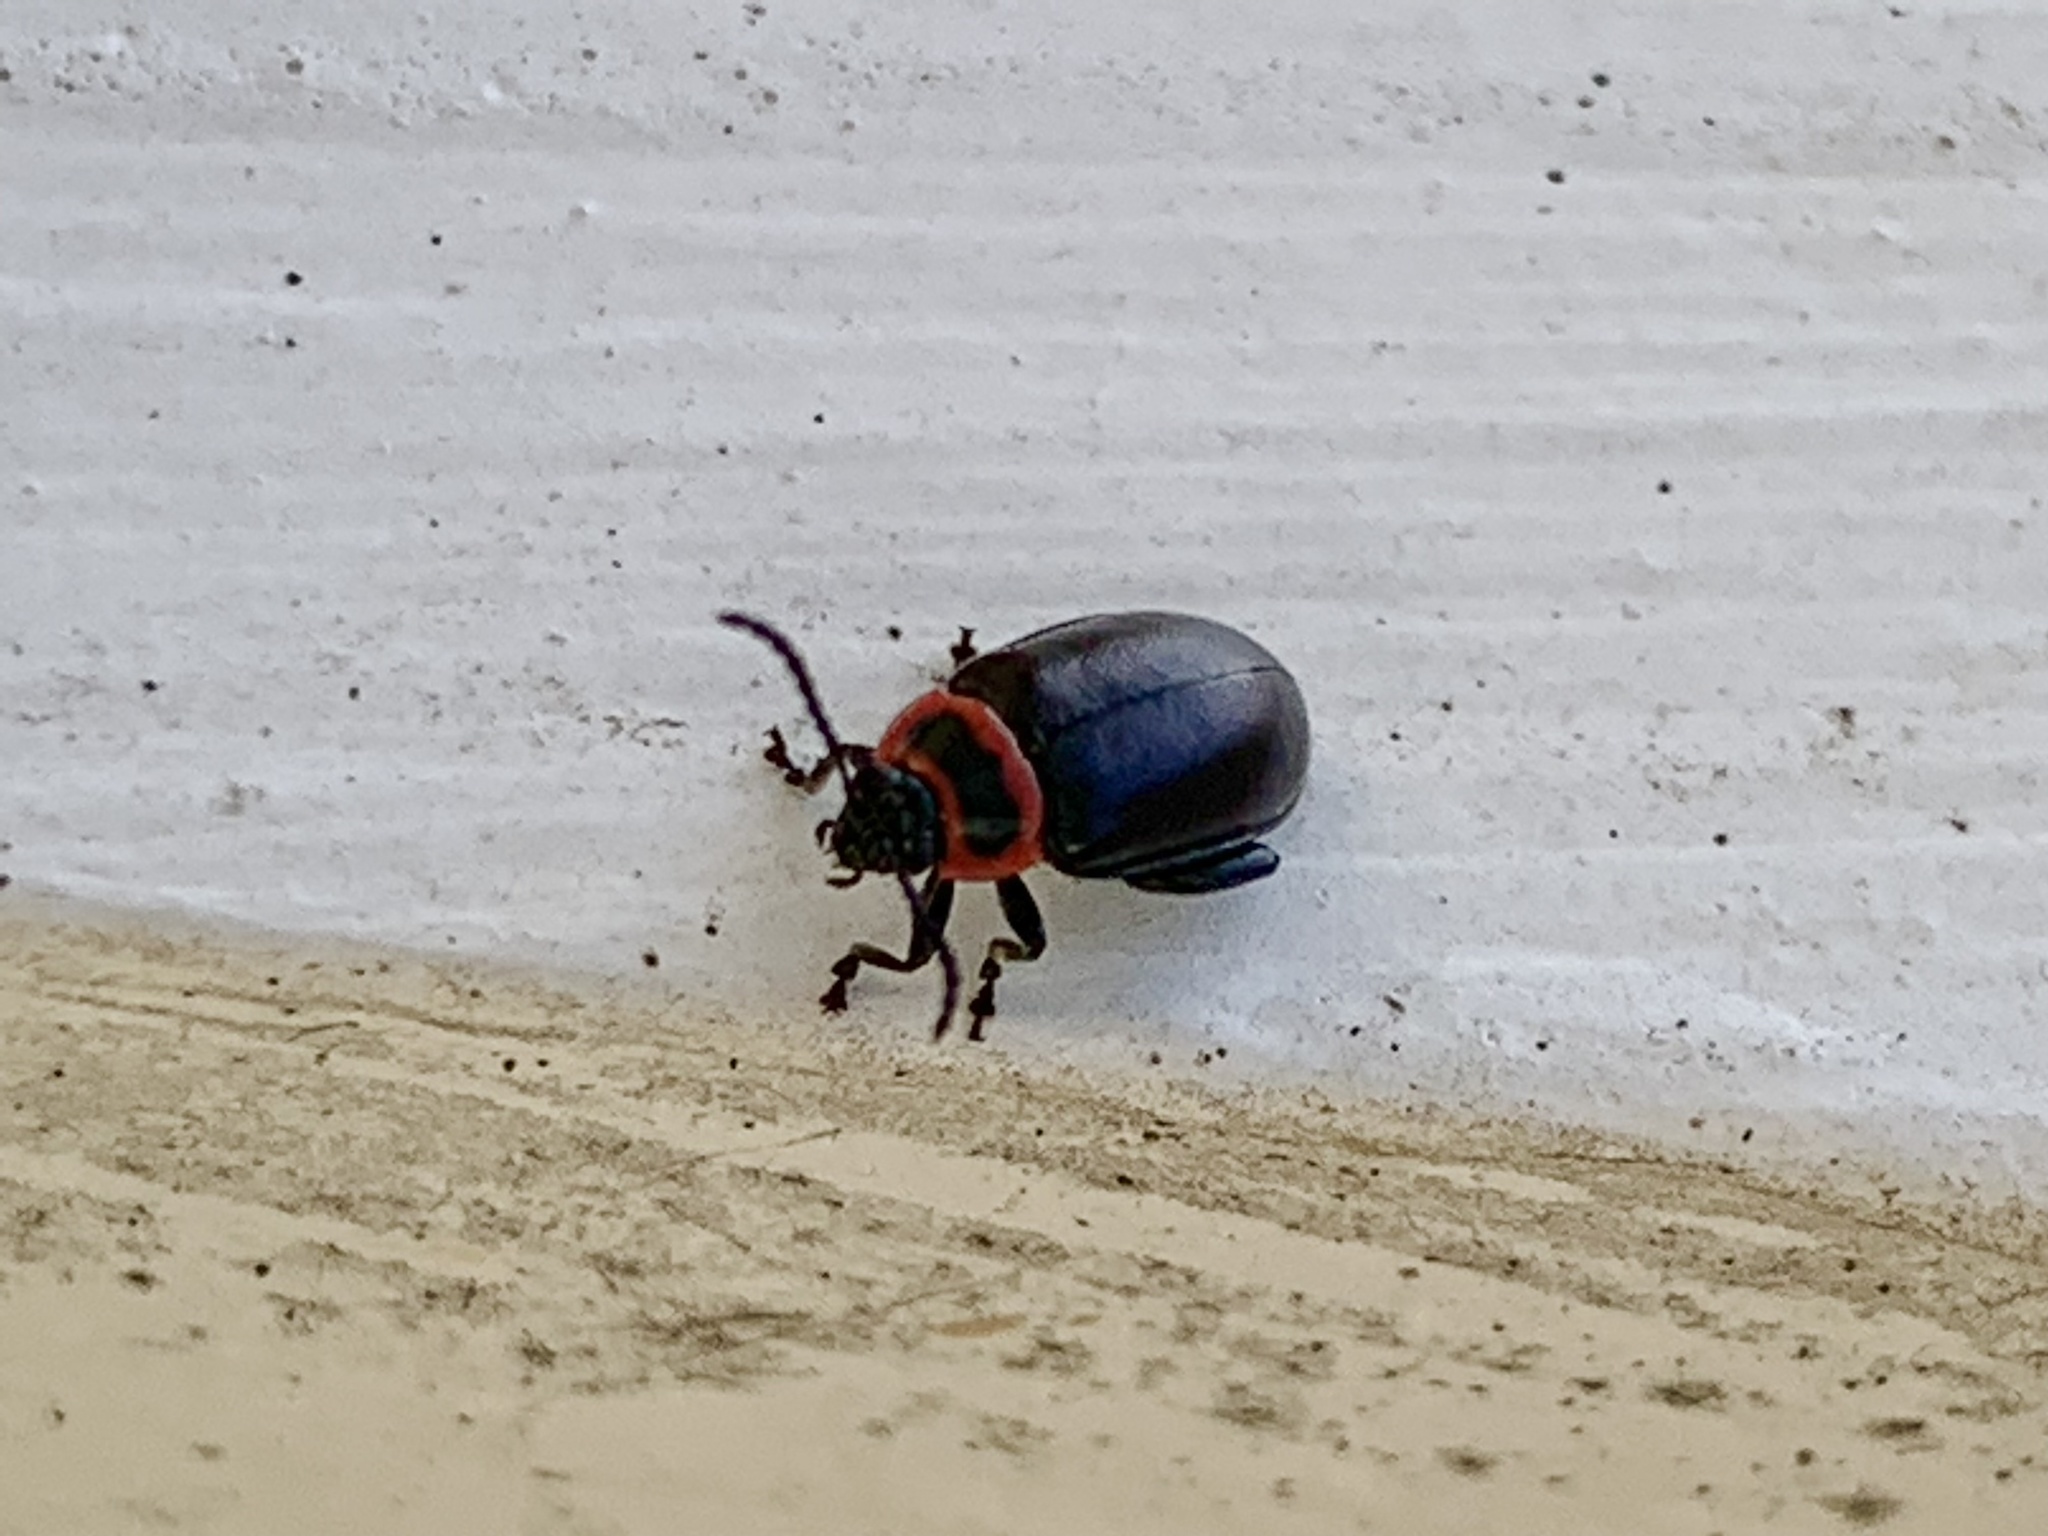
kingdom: Animalia
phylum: Arthropoda
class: Insecta
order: Coleoptera
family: Chrysomelidae
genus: Kuschelina
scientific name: Kuschelina vians
